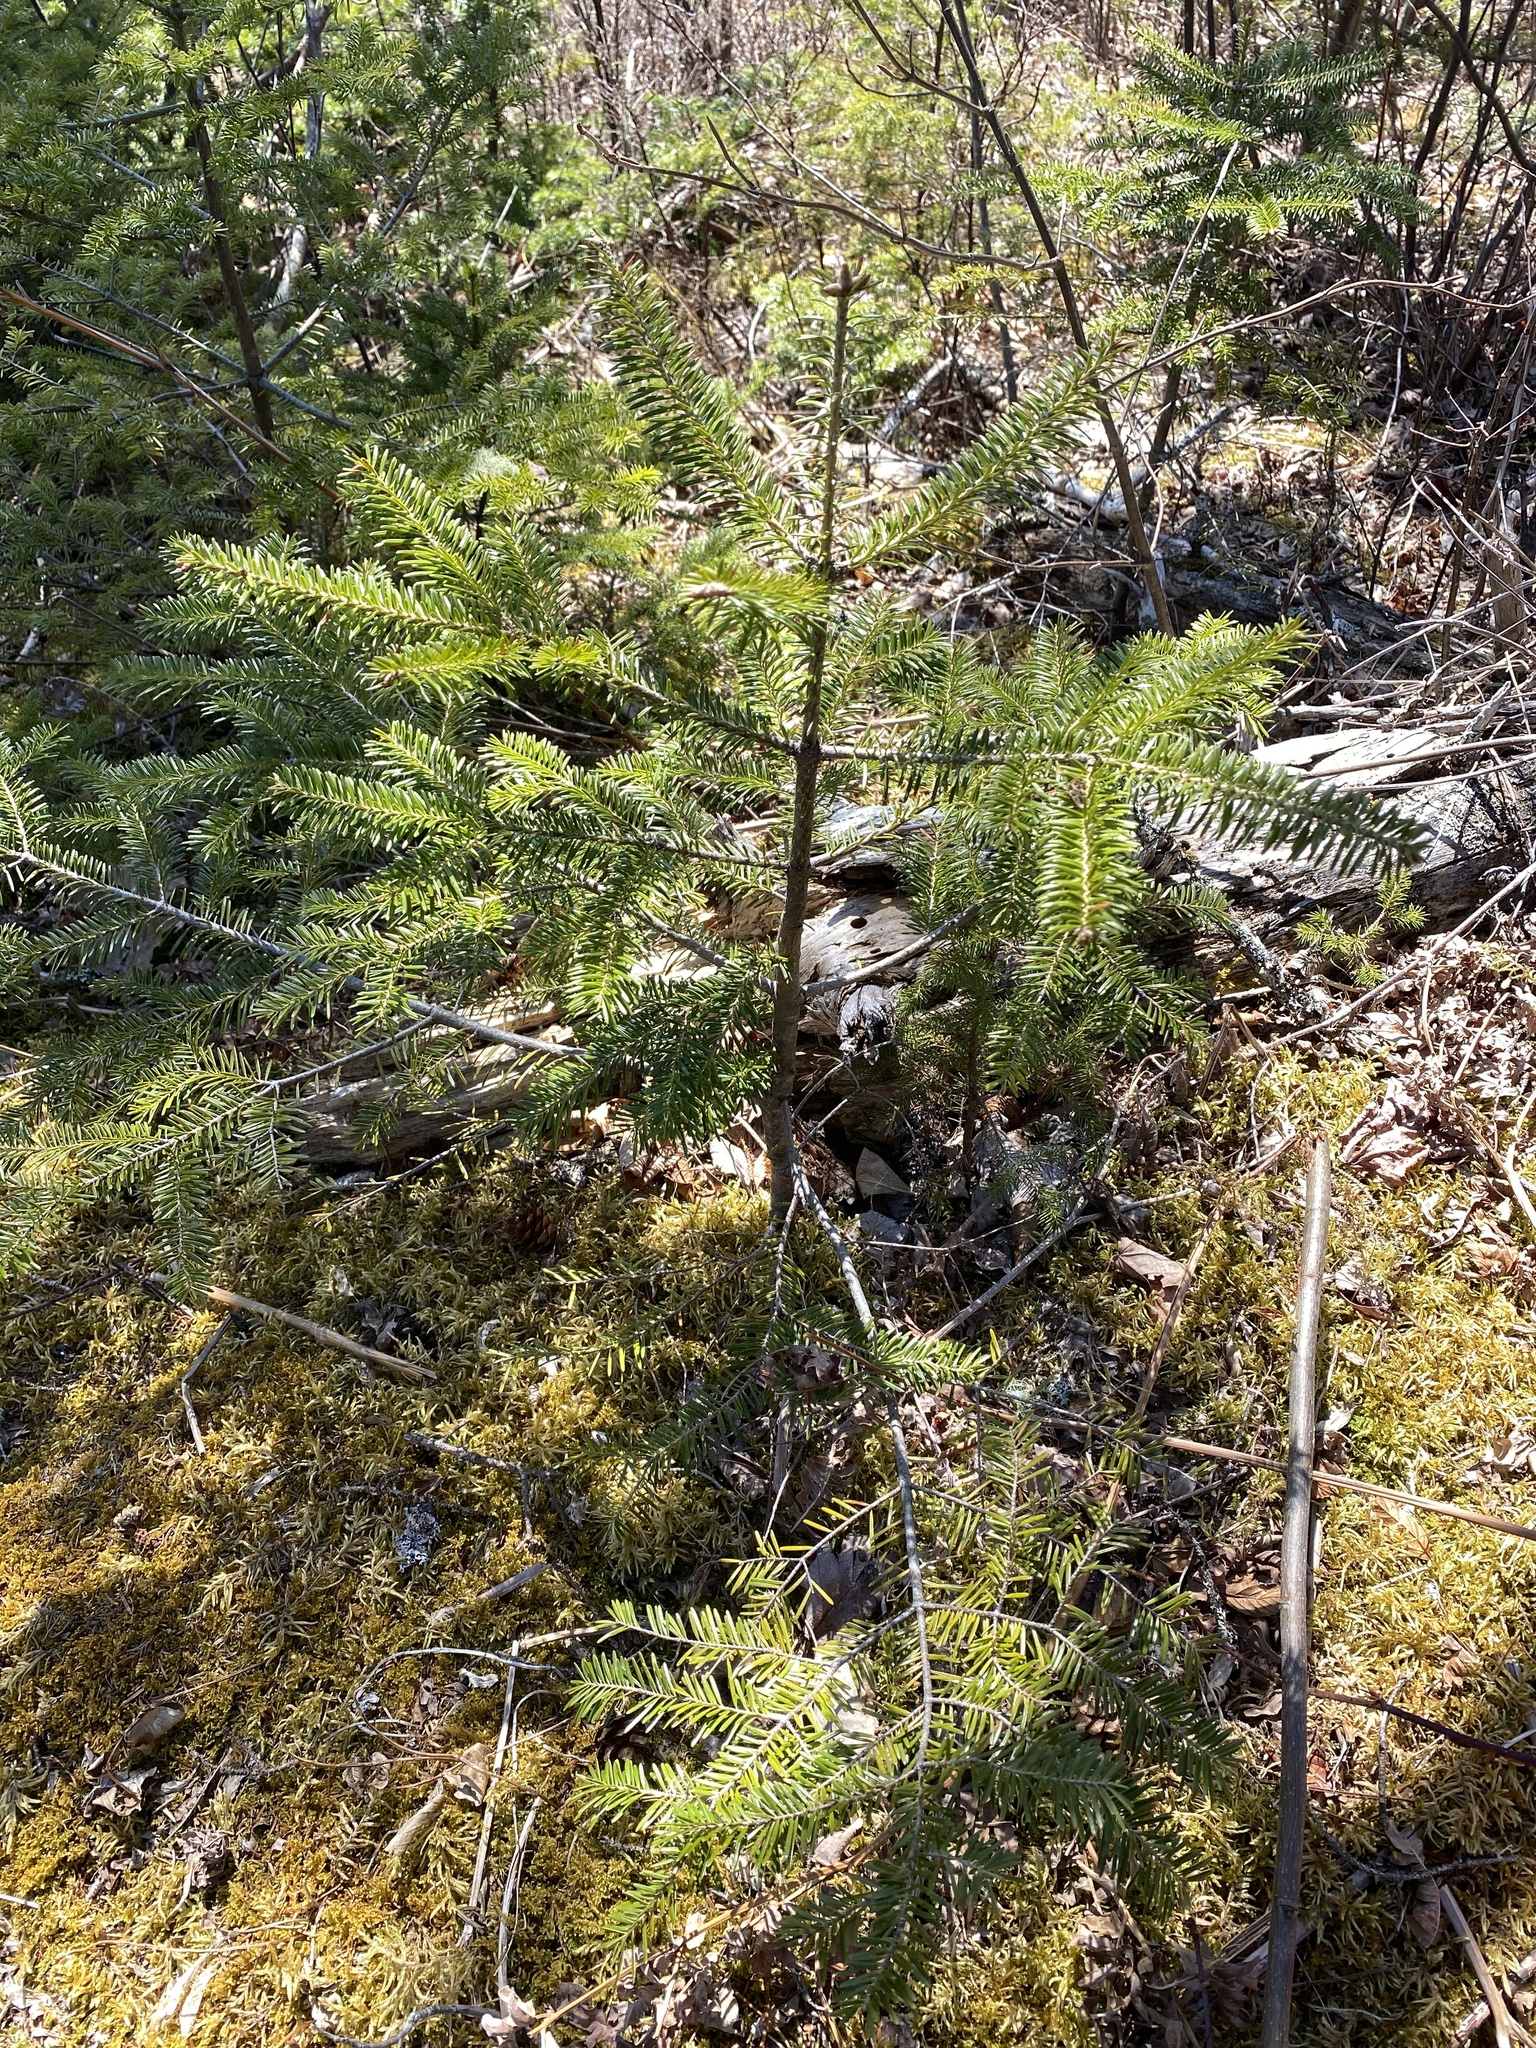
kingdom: Plantae
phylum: Tracheophyta
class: Pinopsida
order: Pinales
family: Pinaceae
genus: Abies
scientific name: Abies balsamea
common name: Balsam fir
